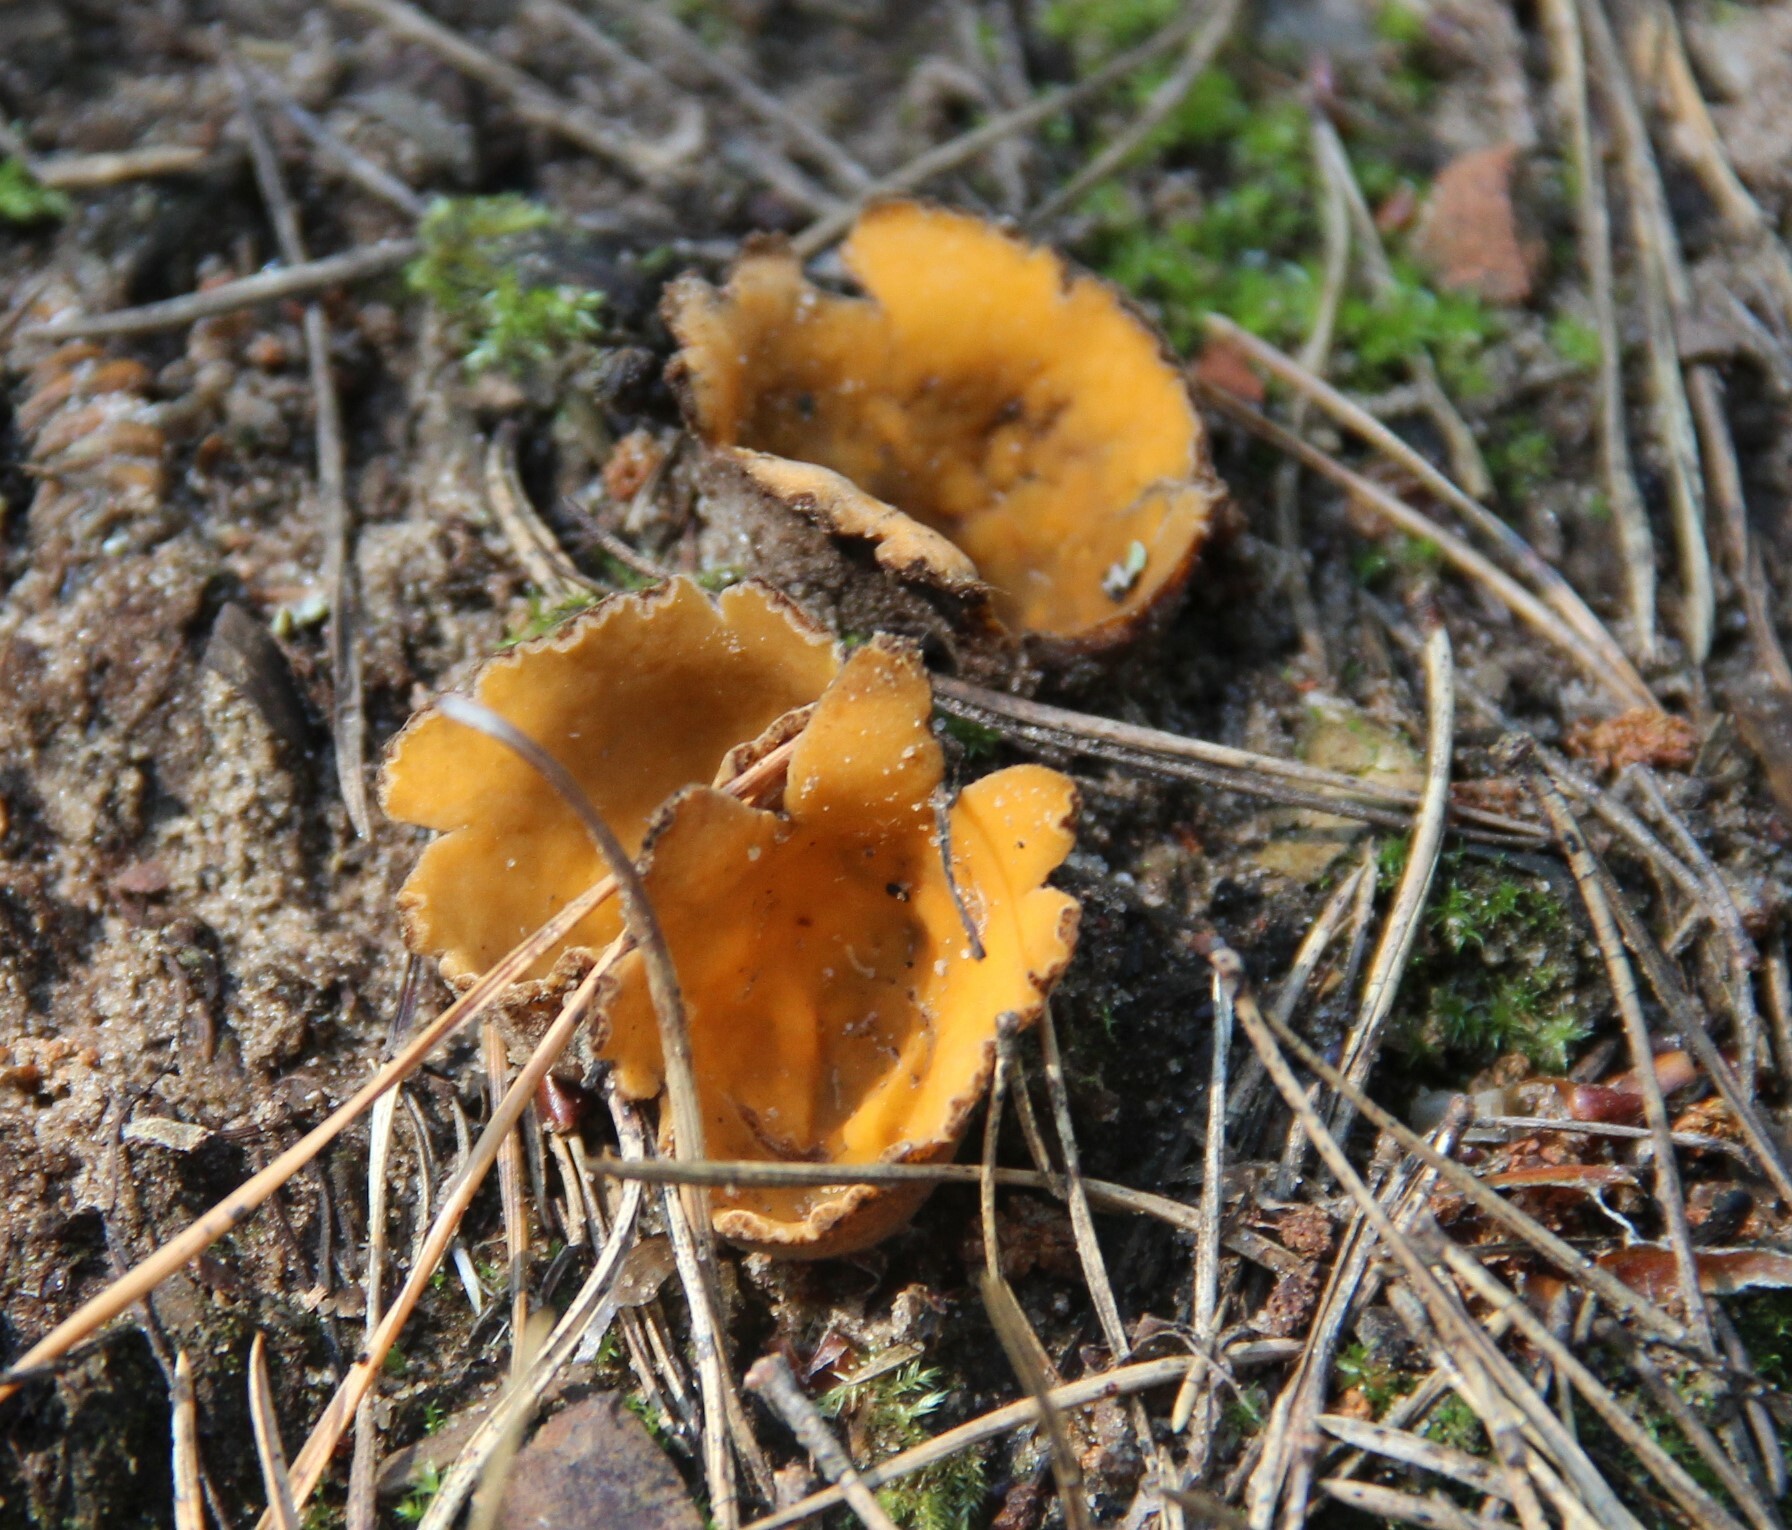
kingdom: Fungi
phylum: Ascomycota
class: Pezizomycetes
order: Pezizales
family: Pyronemataceae
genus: Hoffmannoscypha
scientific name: Hoffmannoscypha pellita
